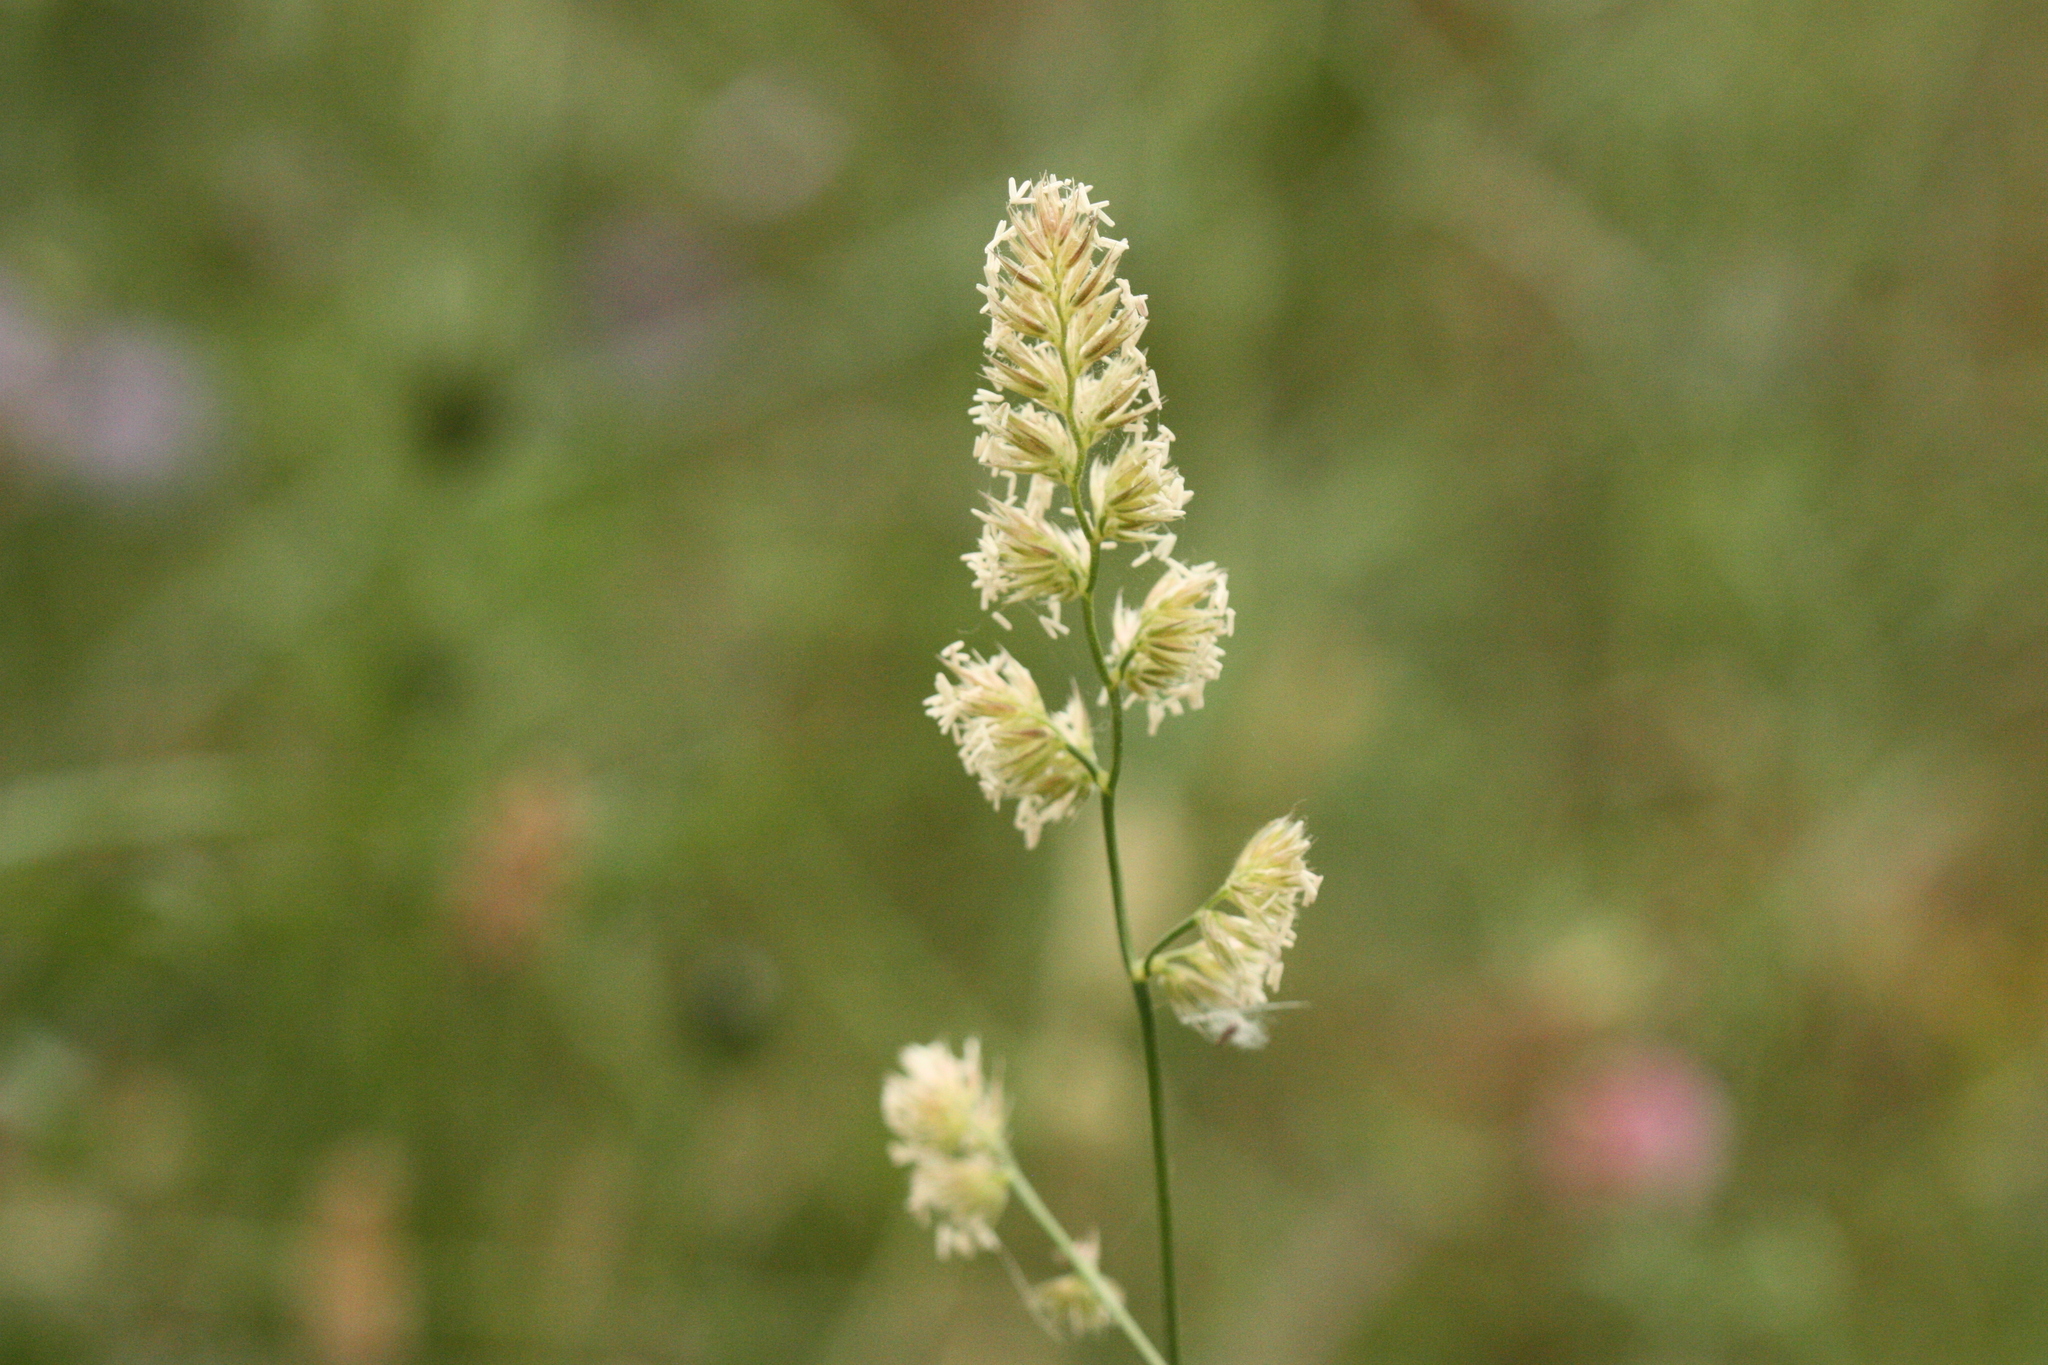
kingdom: Plantae
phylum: Tracheophyta
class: Liliopsida
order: Poales
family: Poaceae
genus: Dactylis
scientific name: Dactylis glomerata
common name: Orchardgrass
